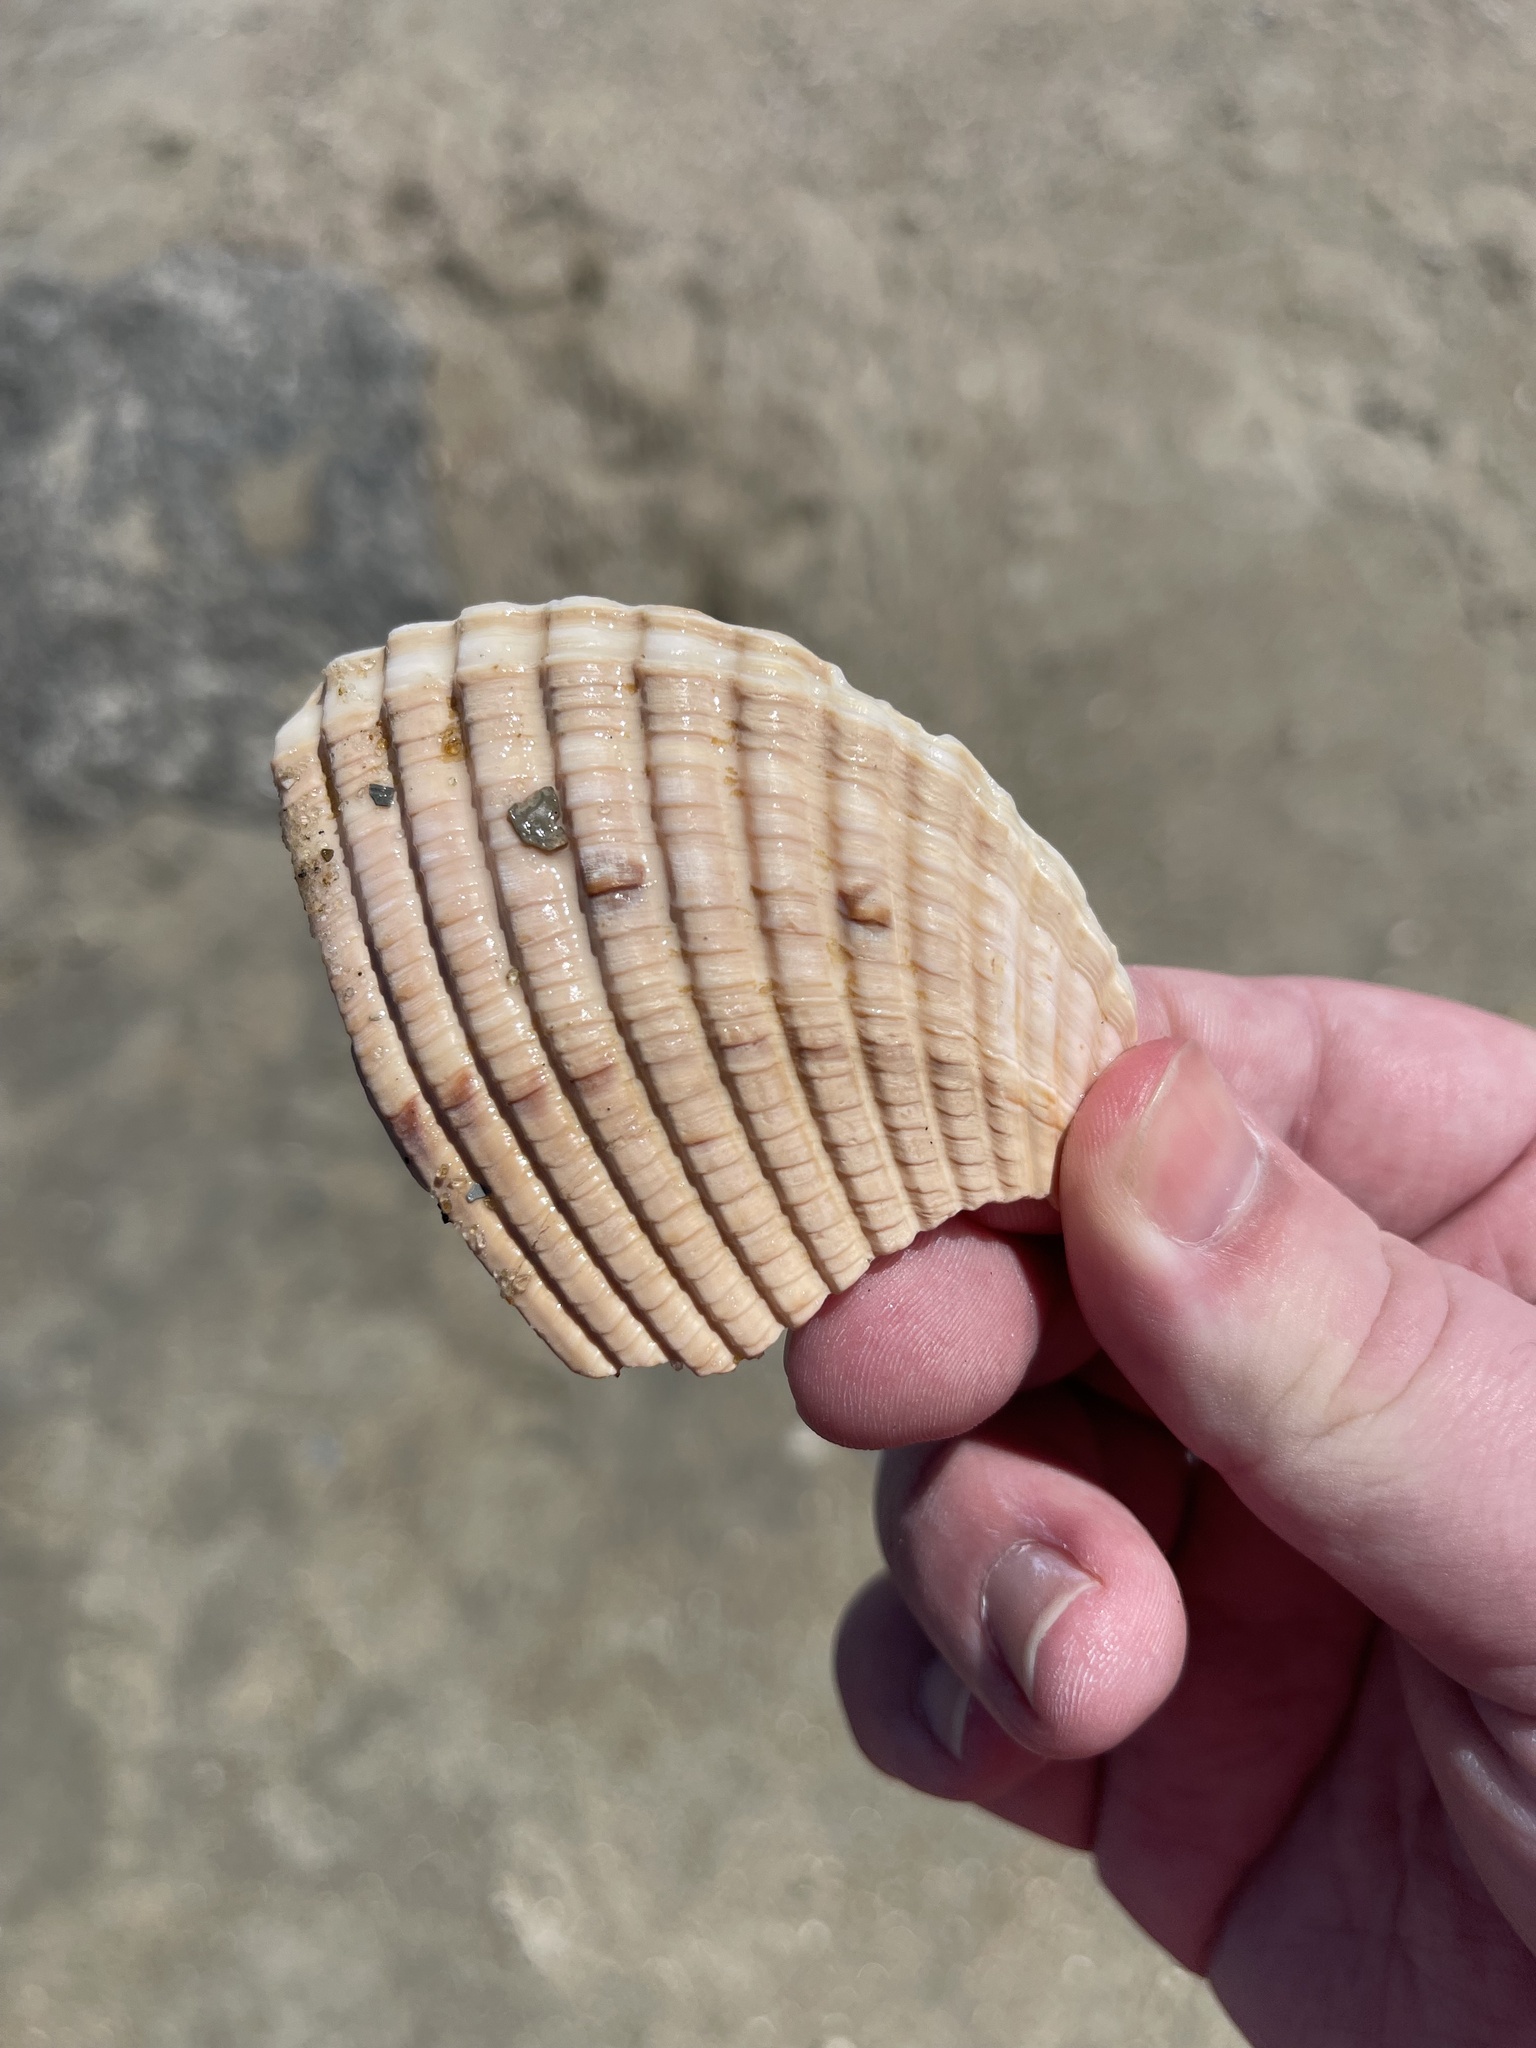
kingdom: Animalia
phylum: Mollusca
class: Bivalvia
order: Cardiida
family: Cardiidae
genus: Dinocardium
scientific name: Dinocardium robustum
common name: Atlantic giant cockle
